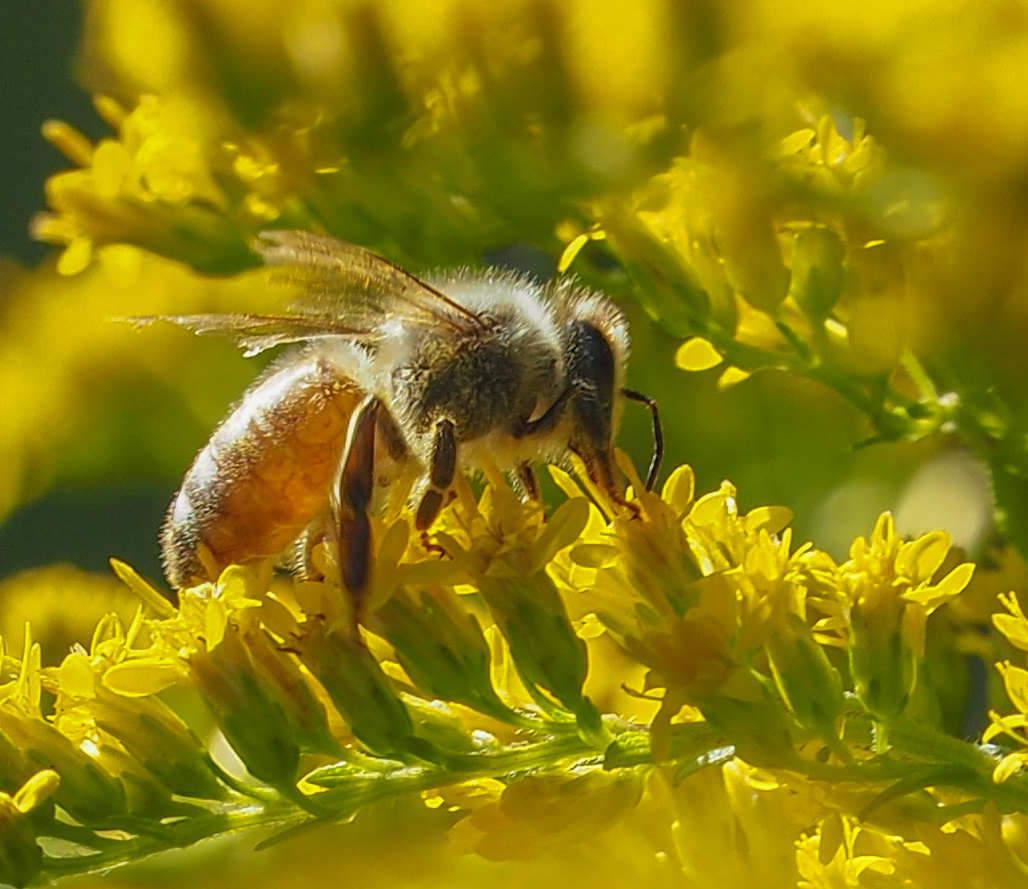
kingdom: Animalia
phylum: Arthropoda
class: Insecta
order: Hymenoptera
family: Apidae
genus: Apis
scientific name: Apis mellifera
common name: Honey bee
